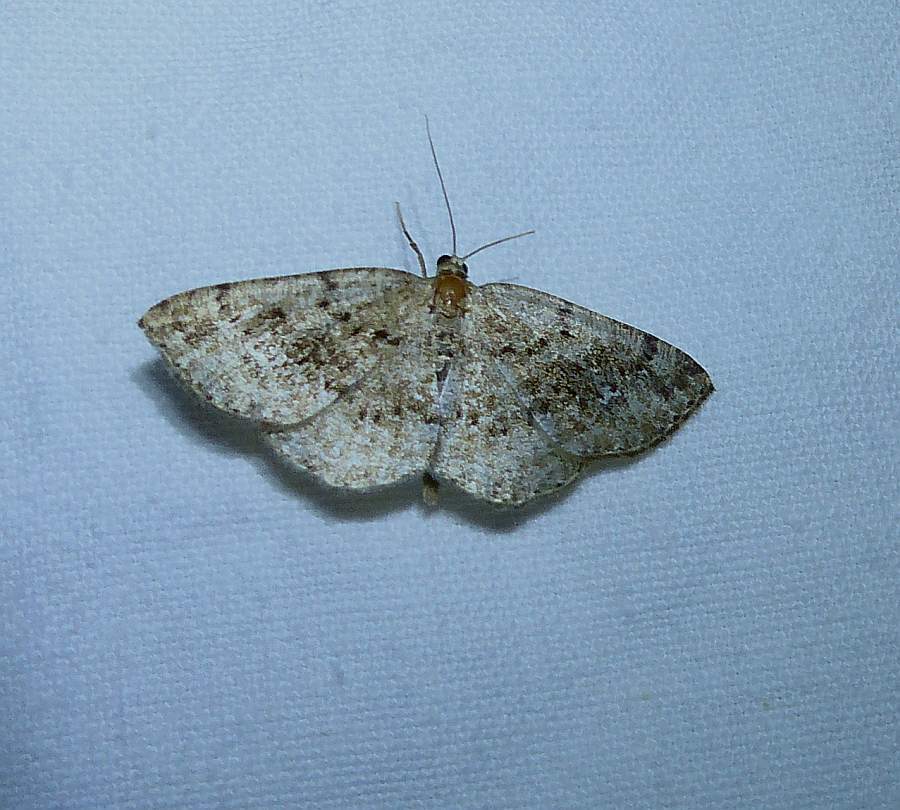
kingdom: Animalia
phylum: Arthropoda
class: Insecta
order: Lepidoptera
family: Geometridae
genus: Homochlodes
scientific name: Homochlodes fritillaria
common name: Pale homochlodes
